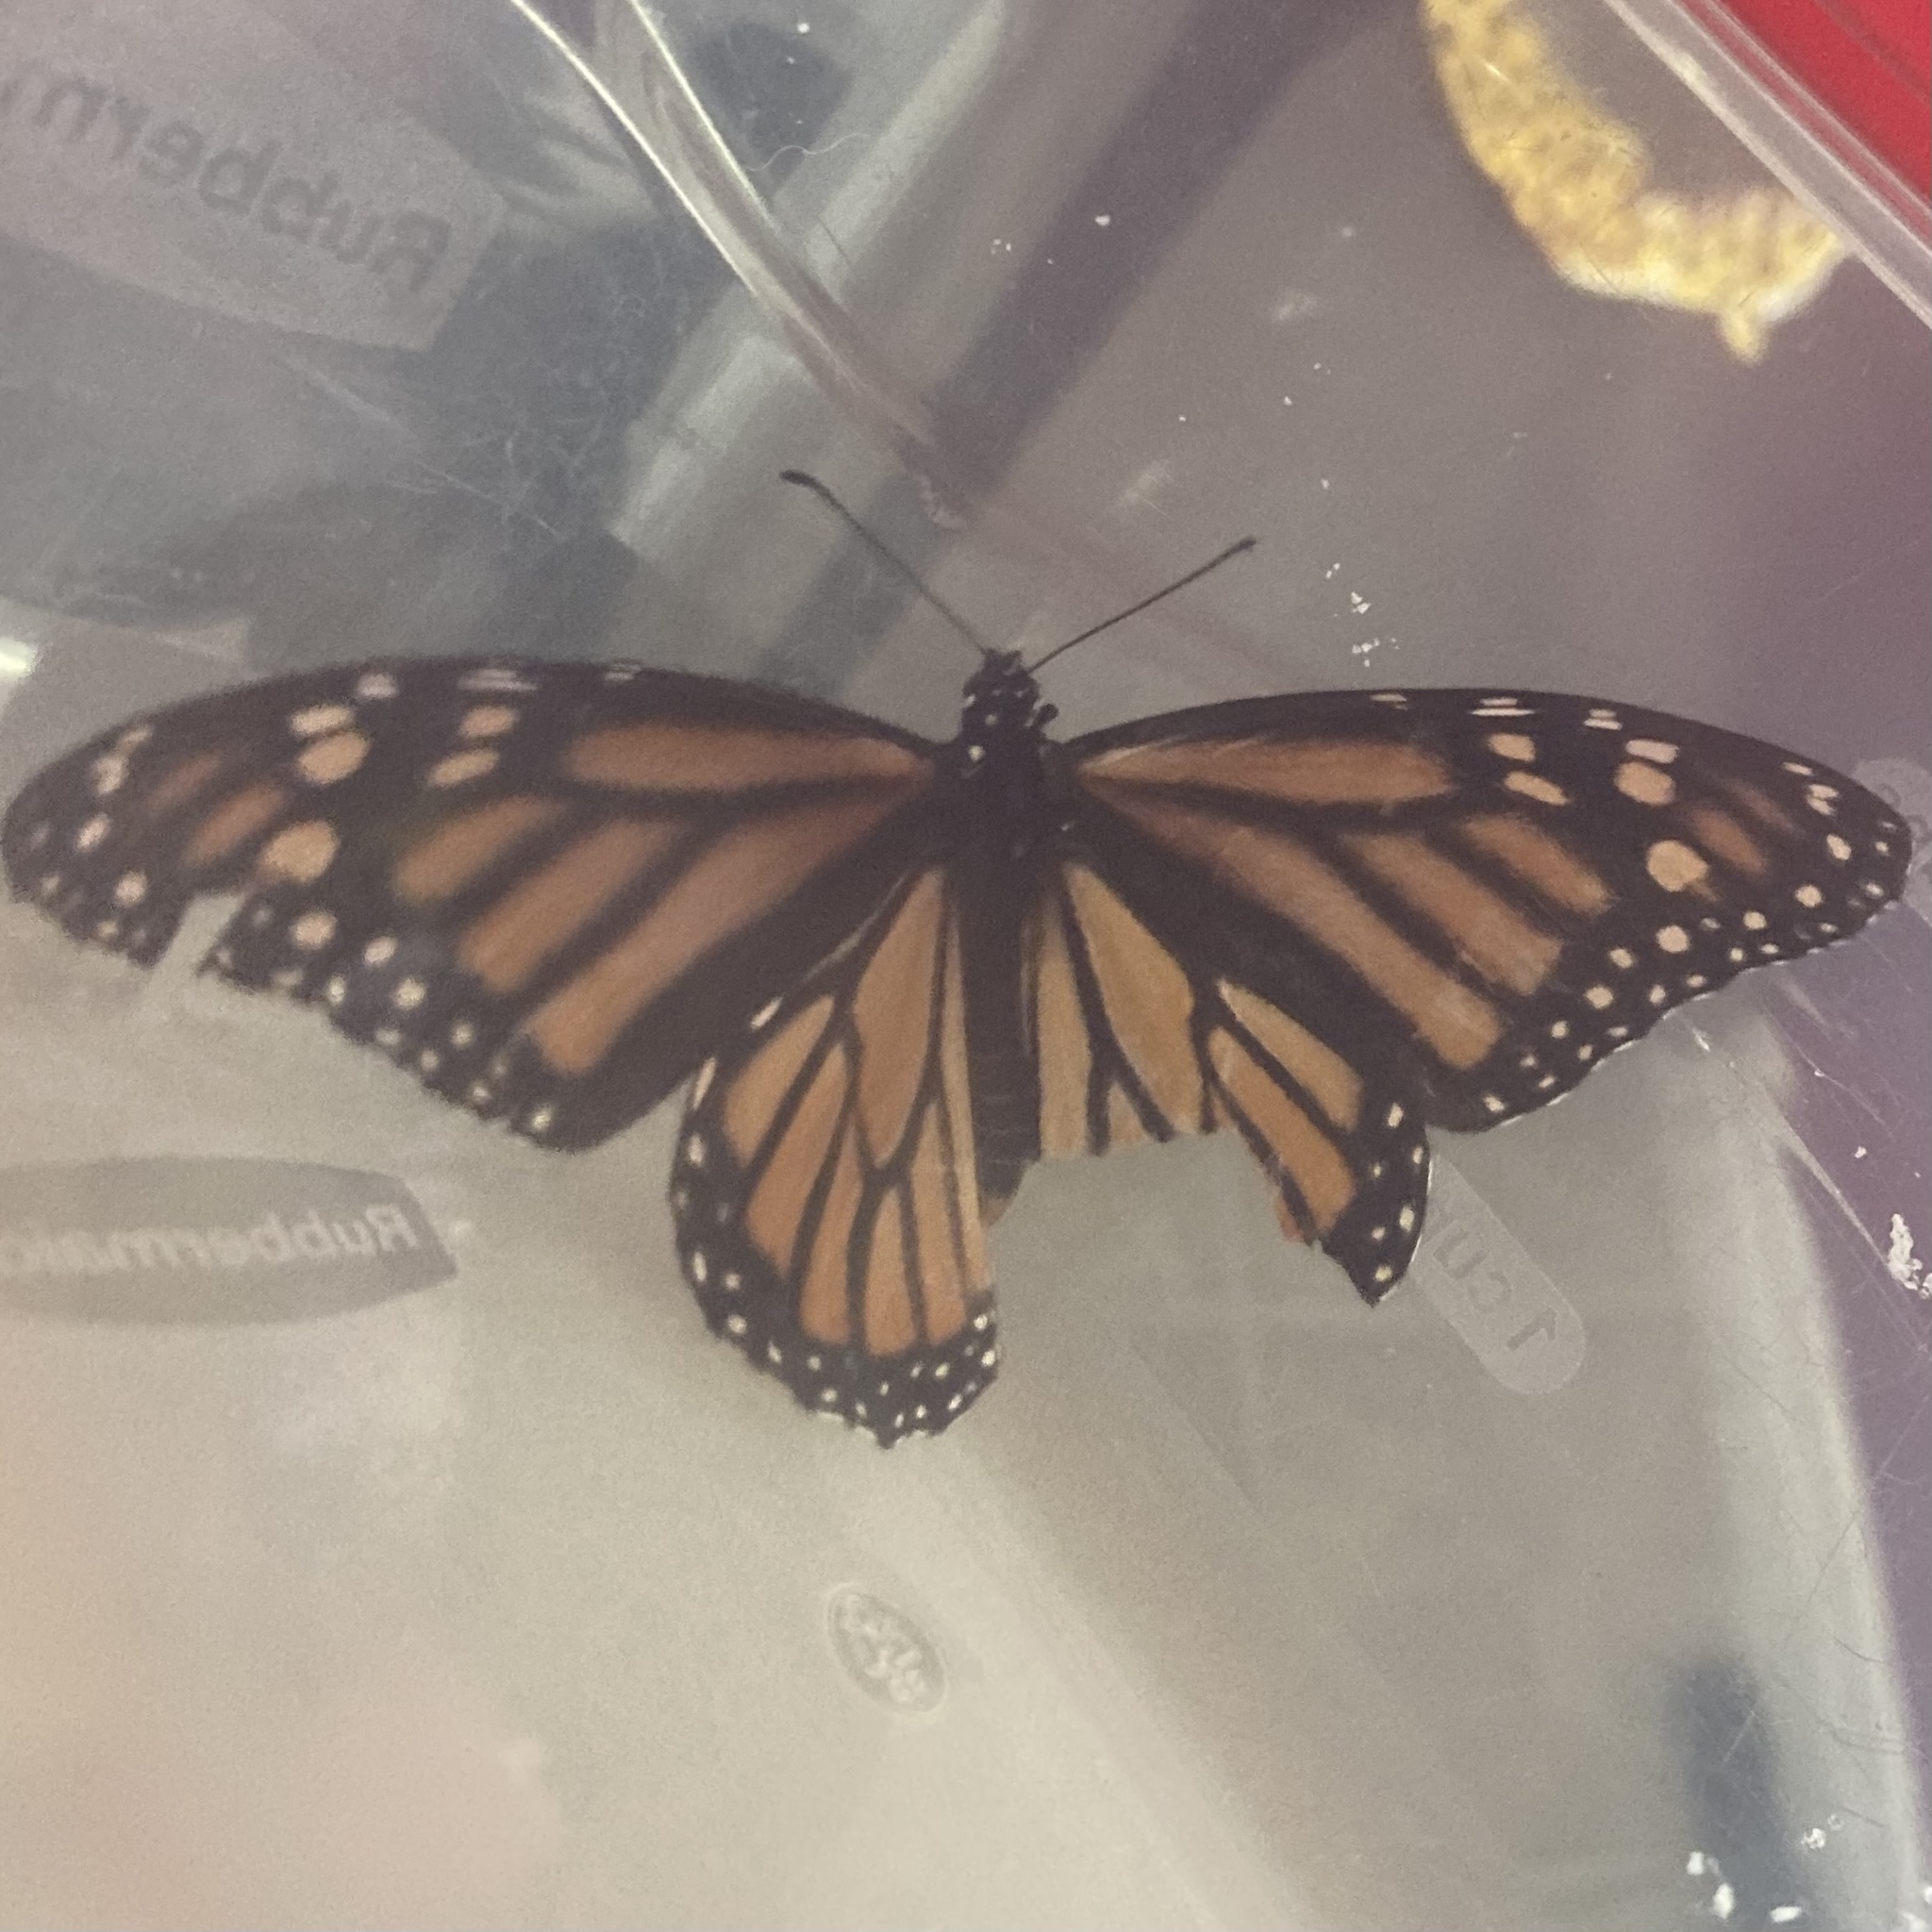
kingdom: Animalia
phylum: Arthropoda
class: Insecta
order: Lepidoptera
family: Nymphalidae
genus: Danaus
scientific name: Danaus plexippus
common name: Monarch
